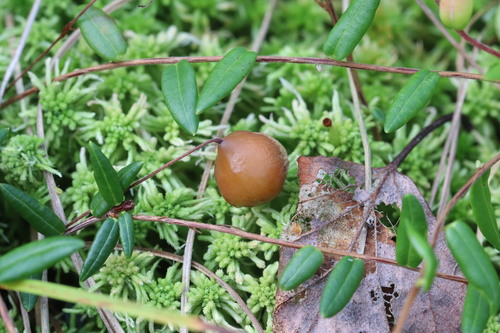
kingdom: Fungi
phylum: Ascomycota
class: Leotiomycetes
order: Helotiales
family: Sclerotiniaceae
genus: Monilinia
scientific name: Monilinia oxycocci
